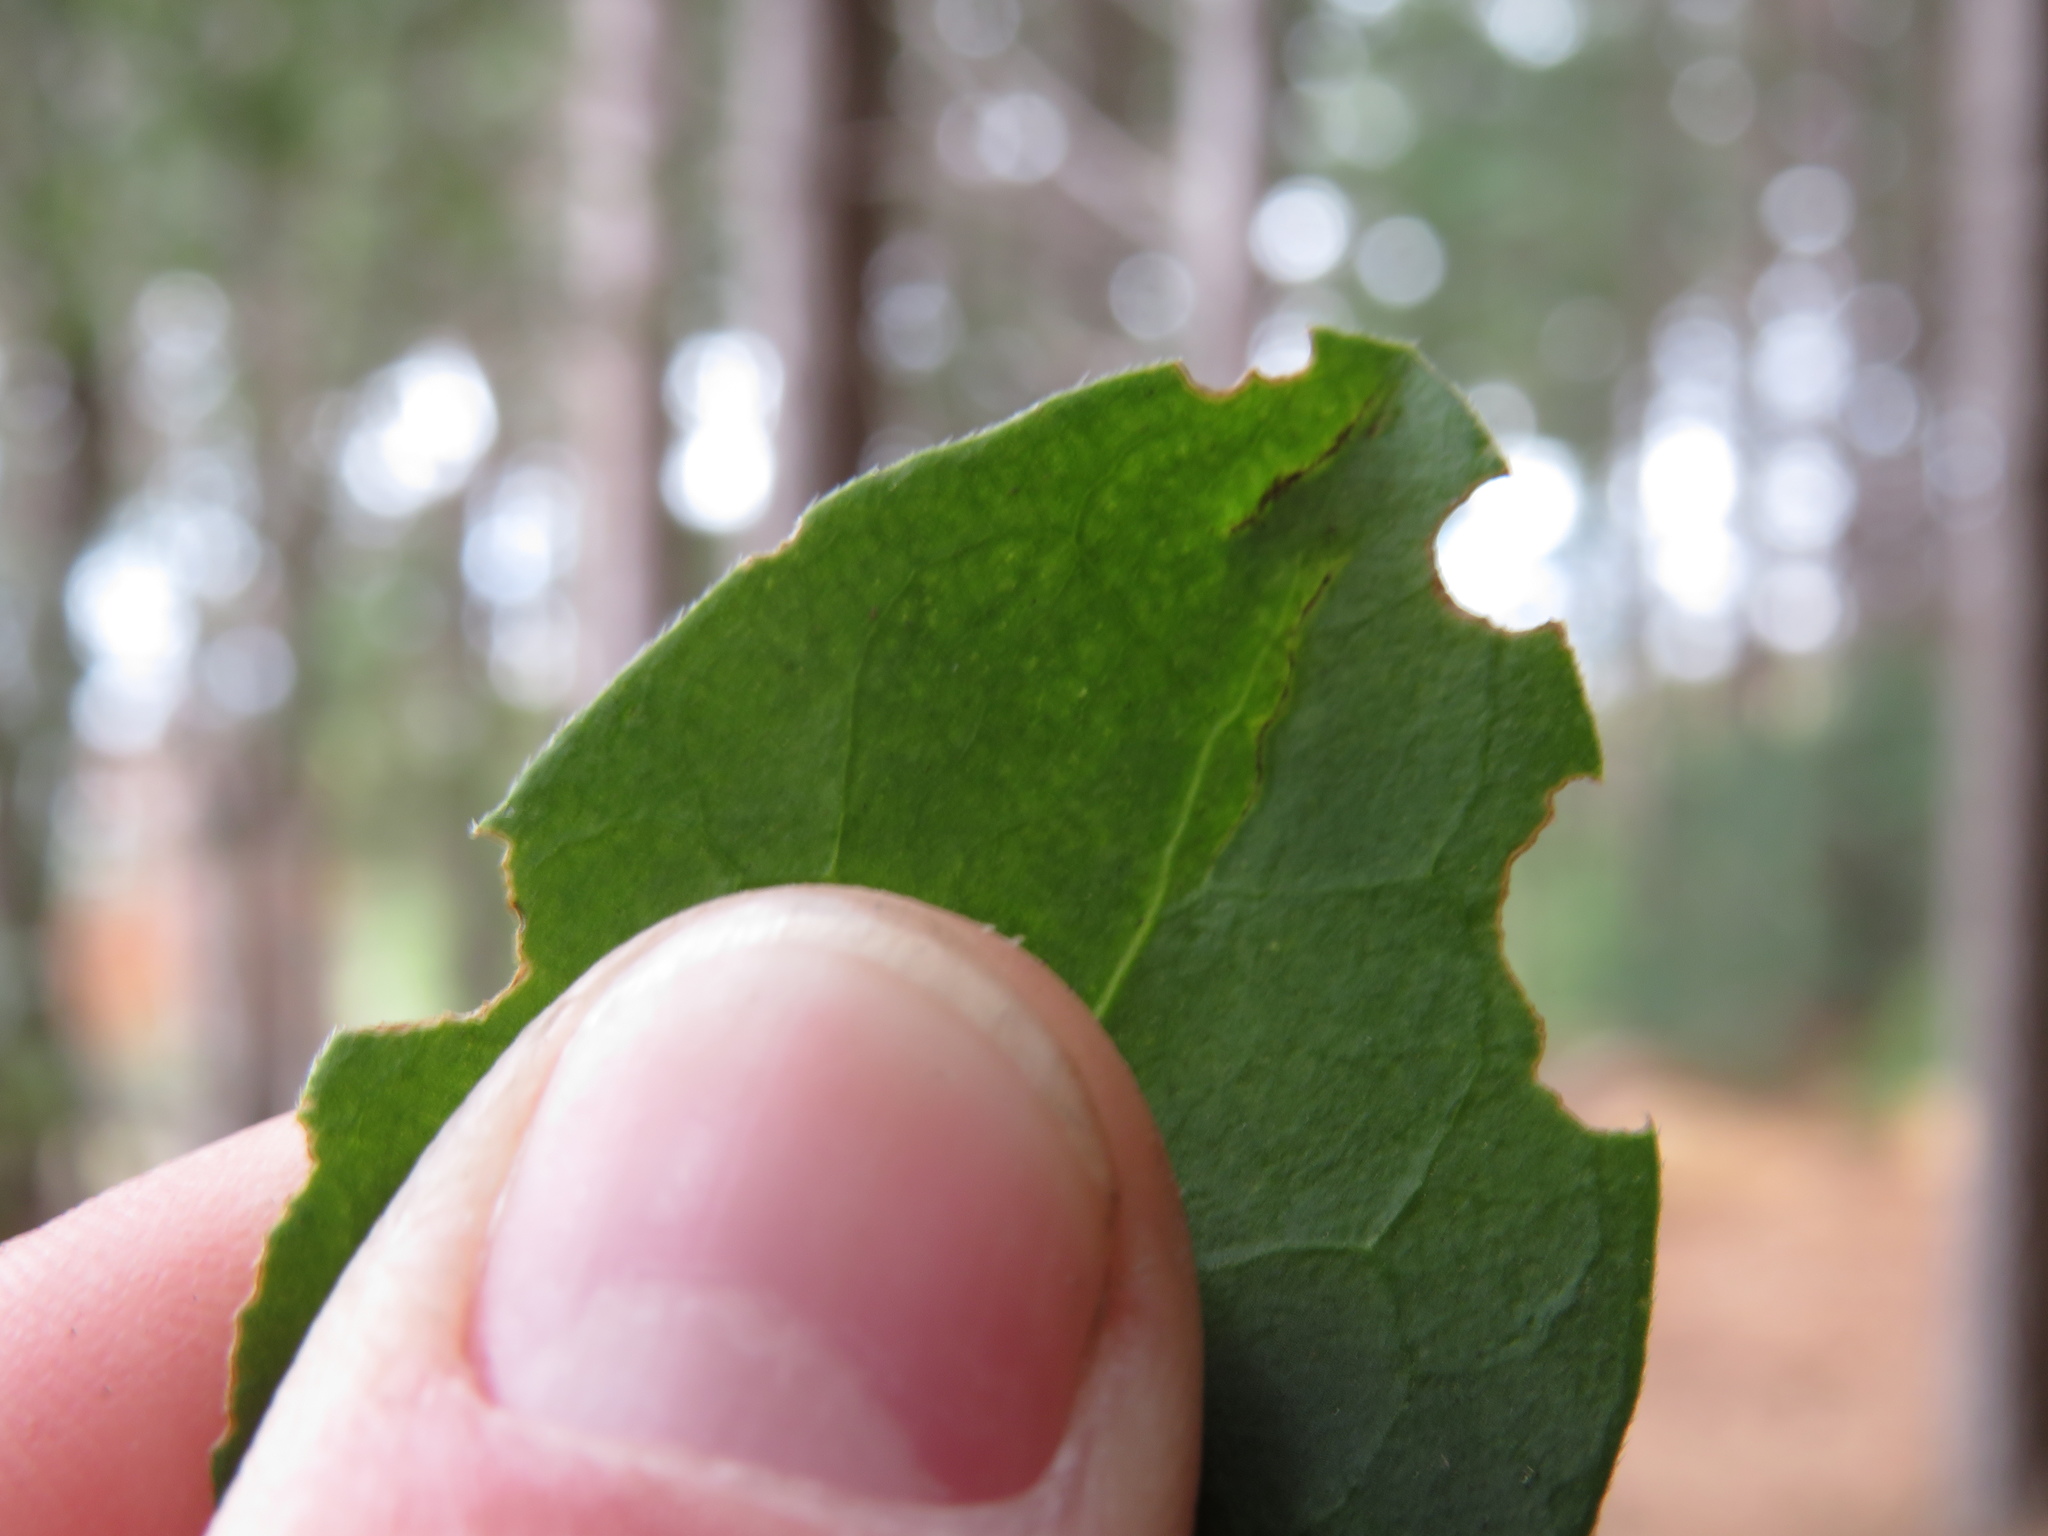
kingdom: Plantae
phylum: Tracheophyta
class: Magnoliopsida
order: Gentianales
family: Apocynaceae
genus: Vinca
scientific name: Vinca major
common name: Greater periwinkle
